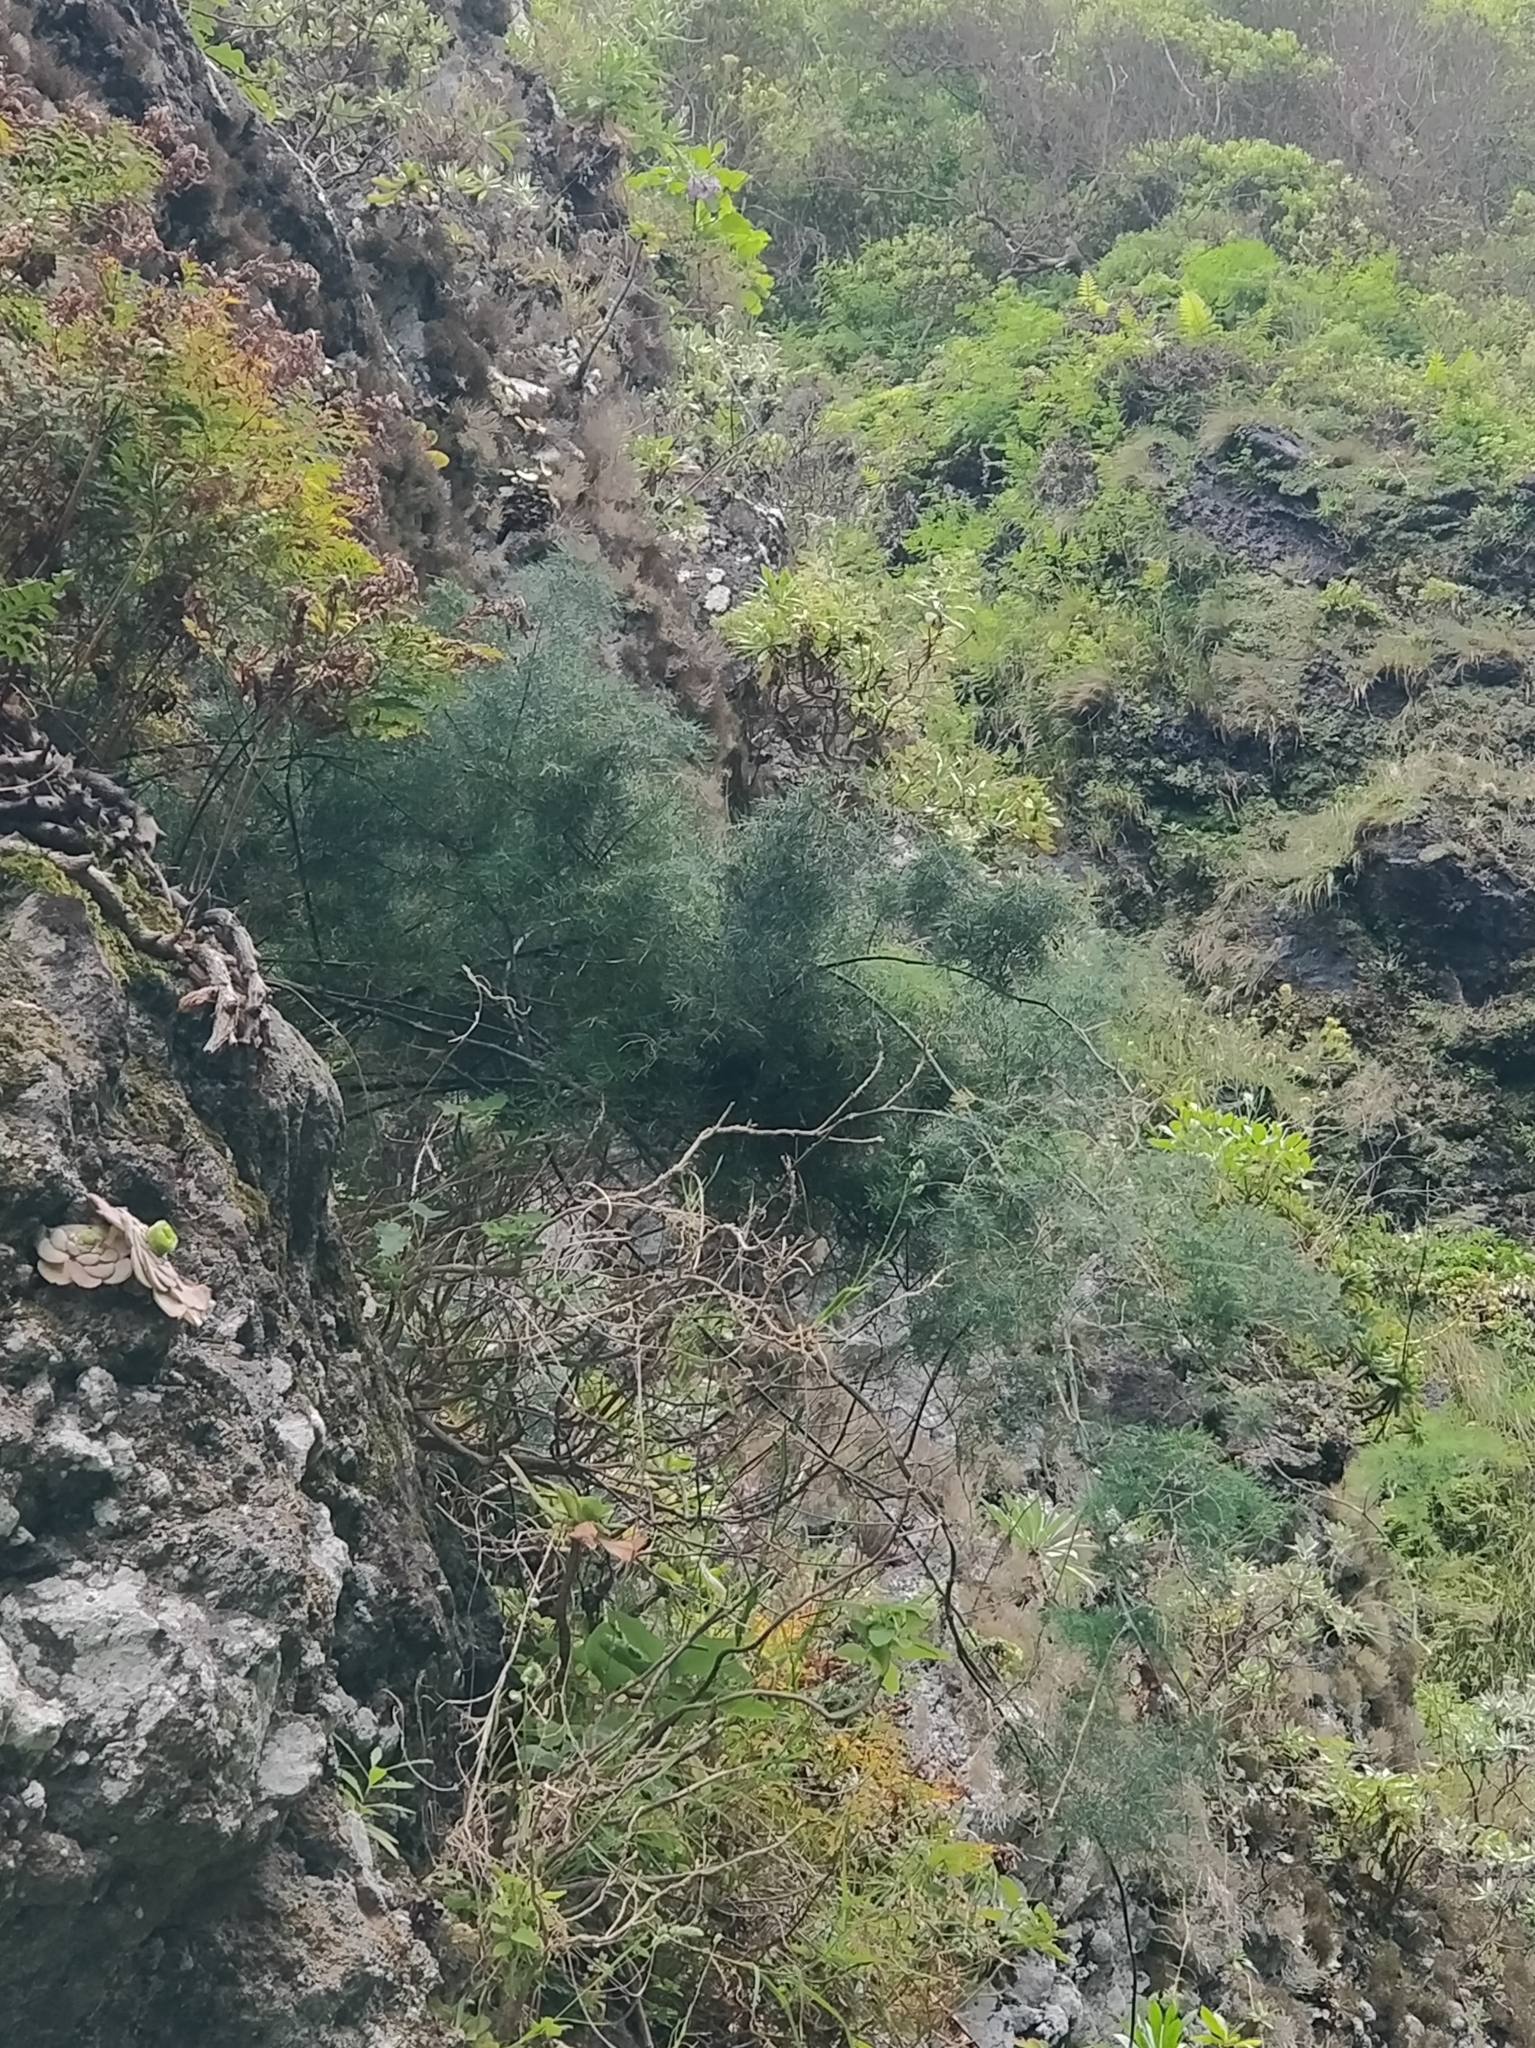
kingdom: Plantae
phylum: Tracheophyta
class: Liliopsida
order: Asparagales
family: Asparagaceae
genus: Asparagus
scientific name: Asparagus umbellatus
